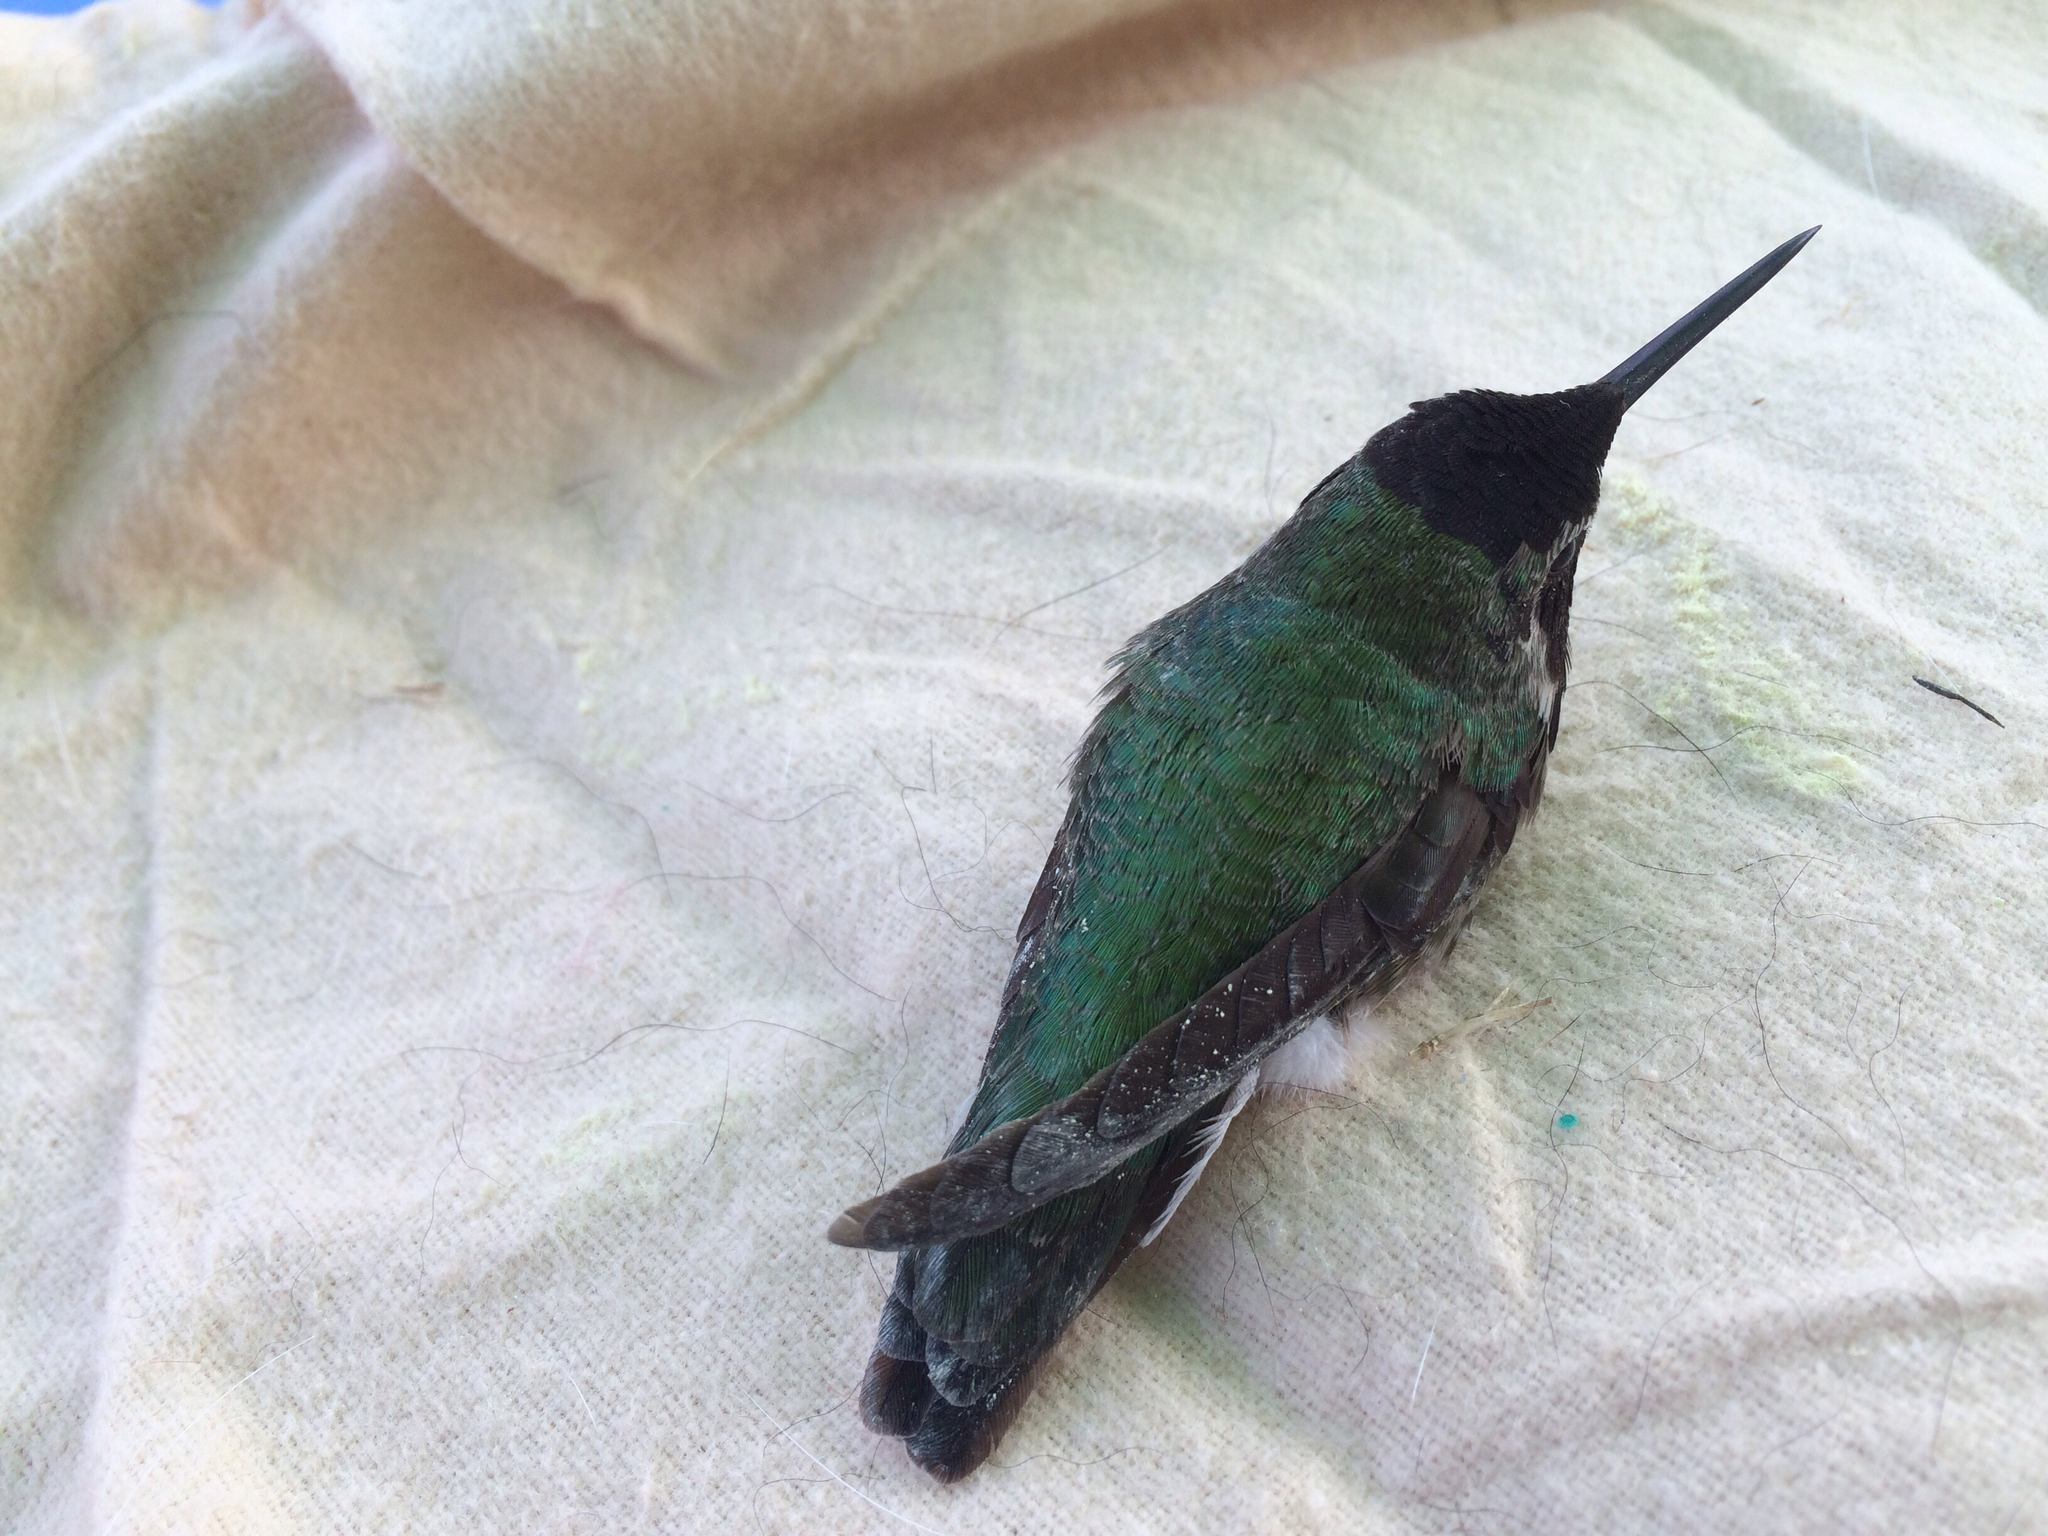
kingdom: Animalia
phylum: Chordata
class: Aves
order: Apodiformes
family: Trochilidae
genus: Calypte
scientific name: Calypte anna
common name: Anna's hummingbird
